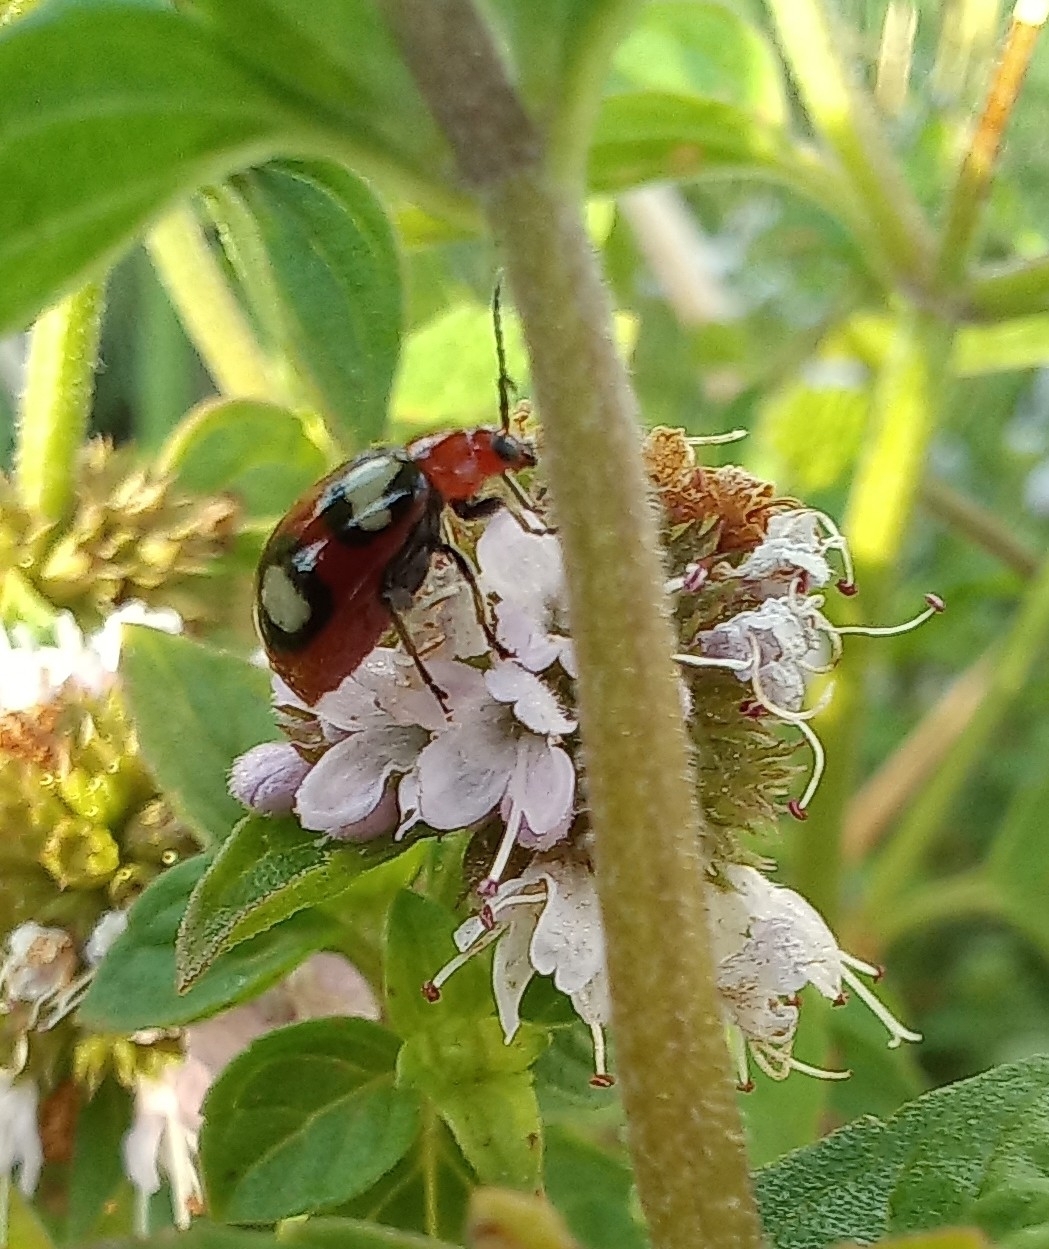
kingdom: Animalia
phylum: Arthropoda
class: Insecta
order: Coleoptera
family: Chrysomelidae
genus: Monolepta
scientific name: Monolepta
